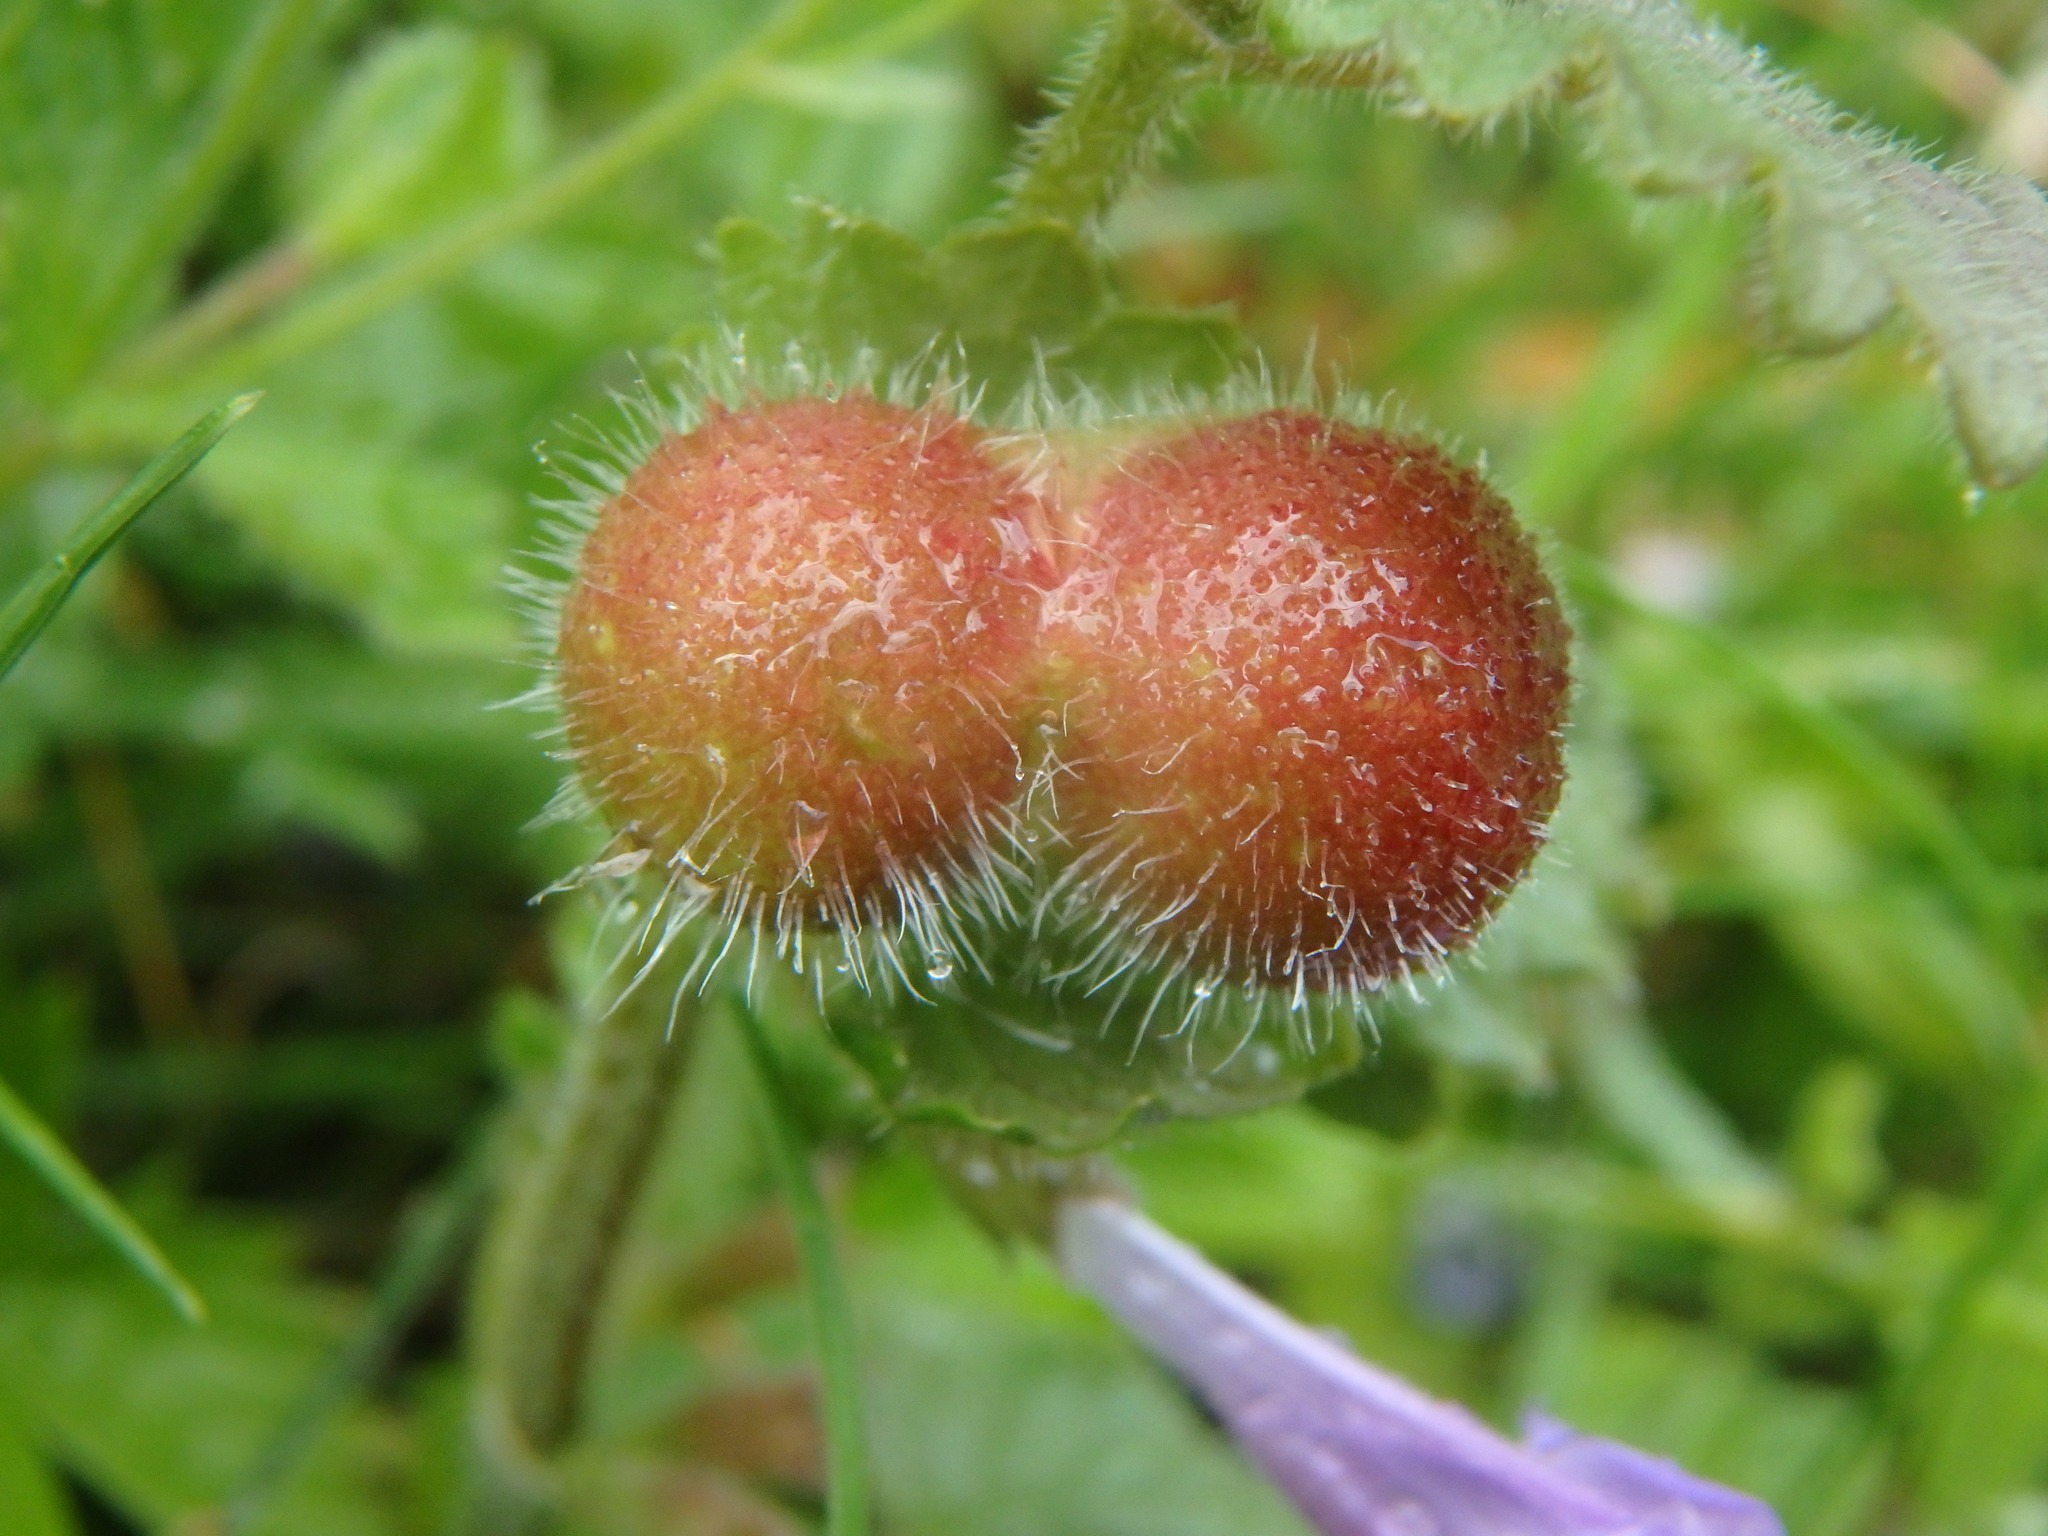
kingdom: Animalia
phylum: Arthropoda
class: Insecta
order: Hymenoptera
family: Cynipidae
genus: Liposthenes
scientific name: Liposthenes glechomae
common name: Gall wasp
